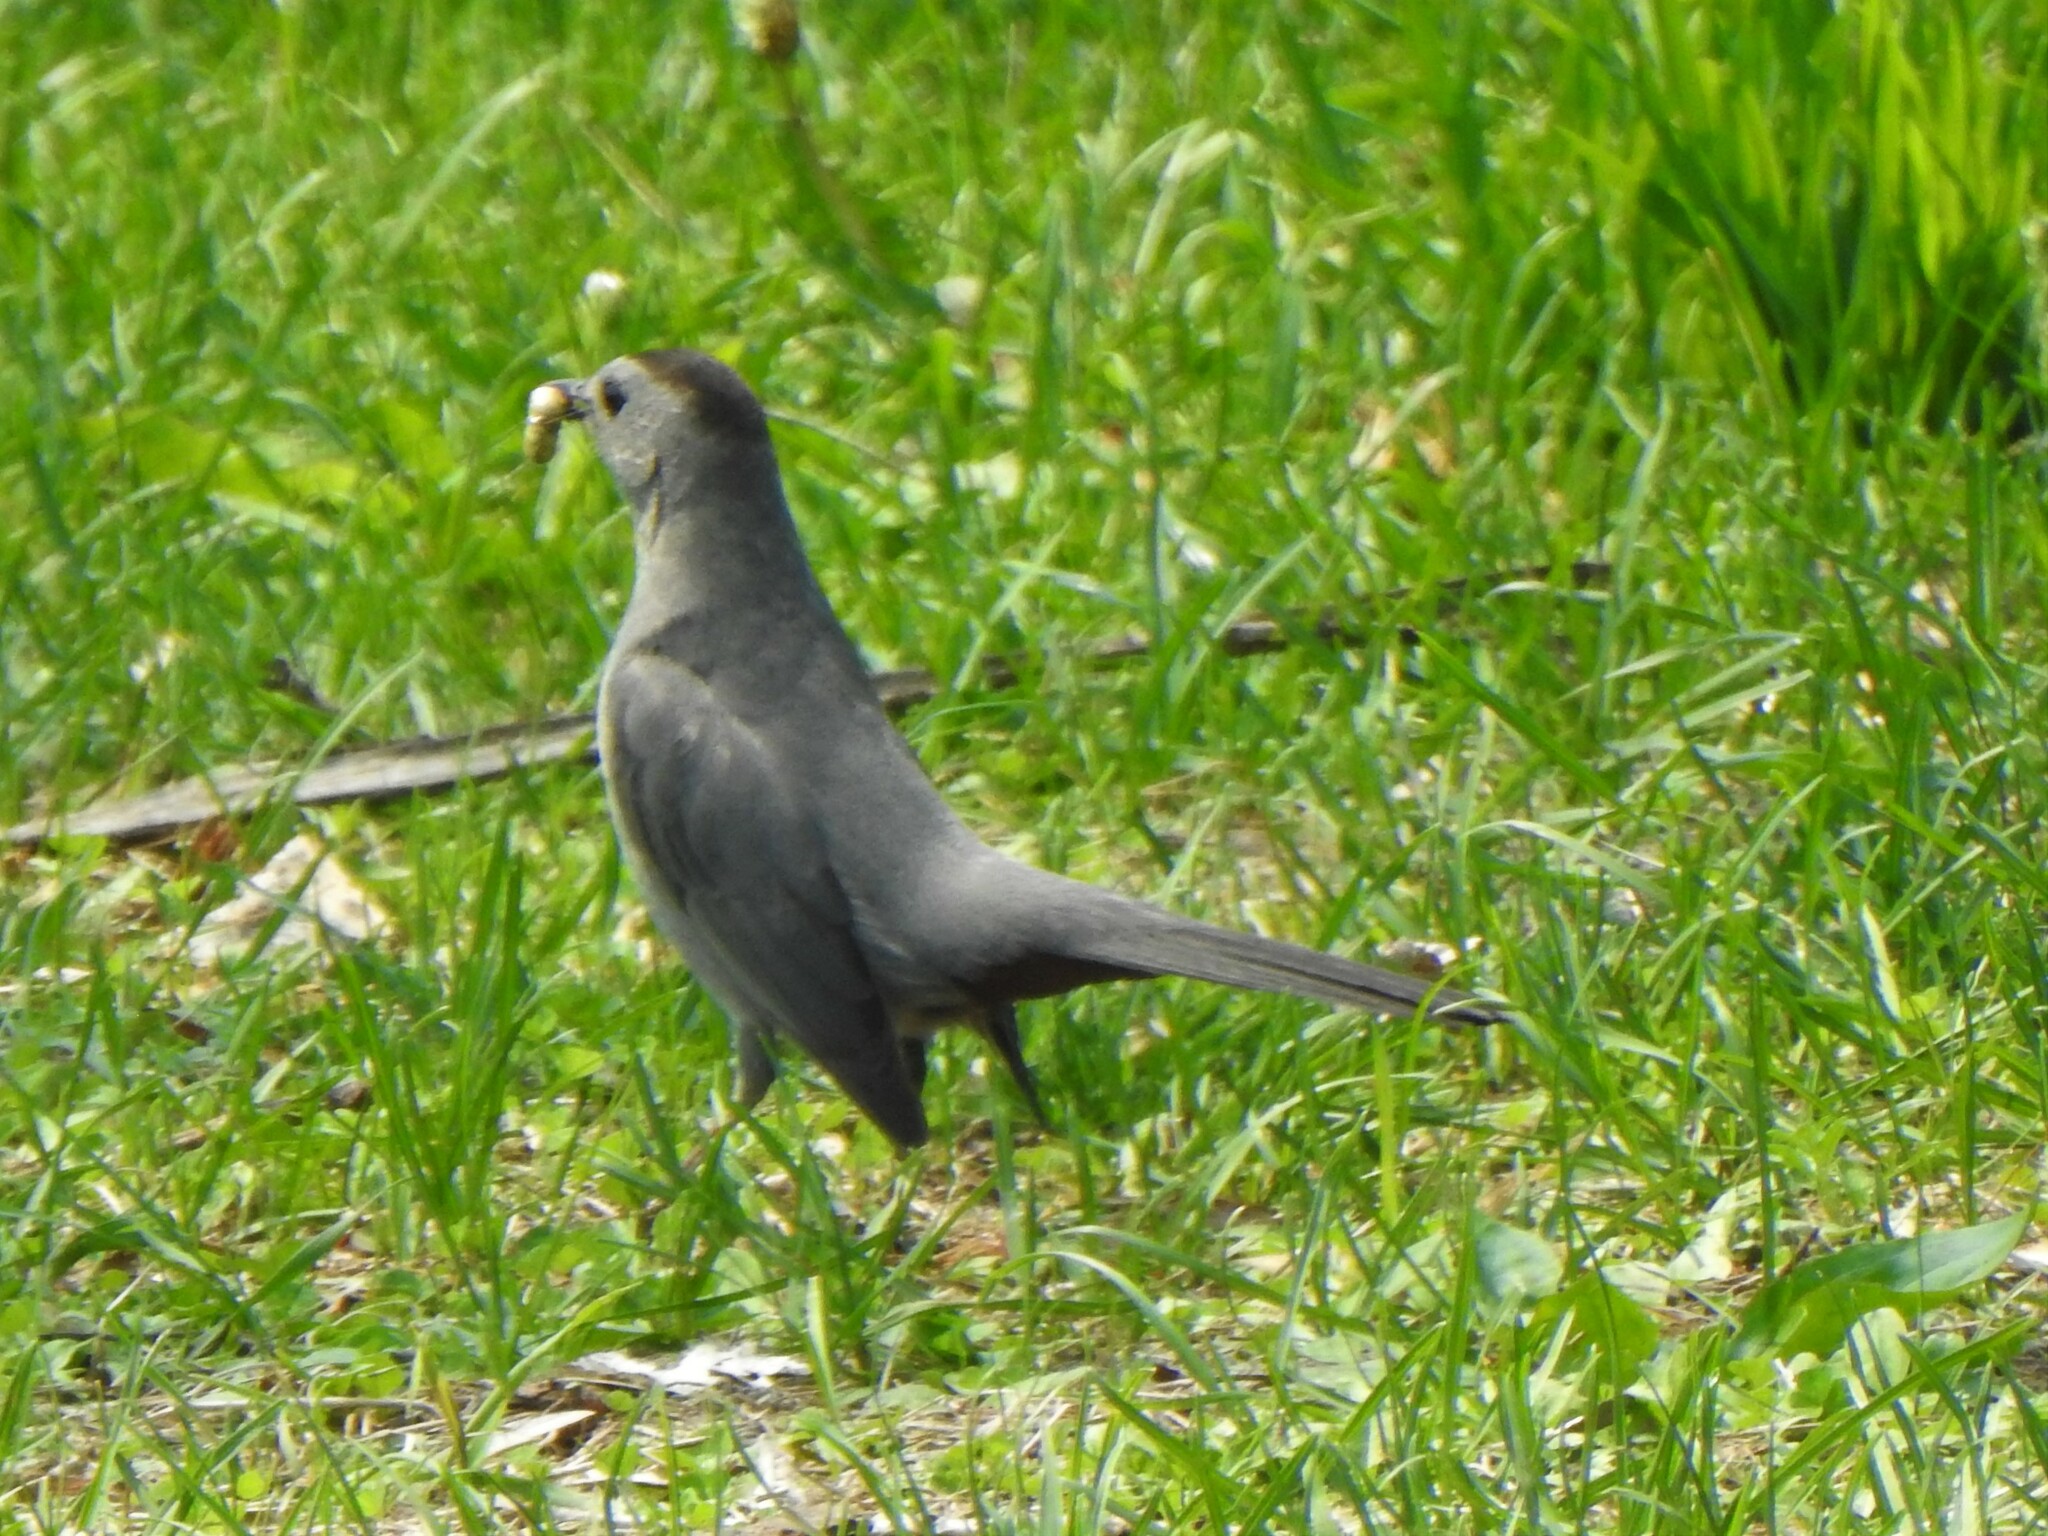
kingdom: Animalia
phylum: Chordata
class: Aves
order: Passeriformes
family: Mimidae
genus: Dumetella
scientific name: Dumetella carolinensis
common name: Gray catbird
